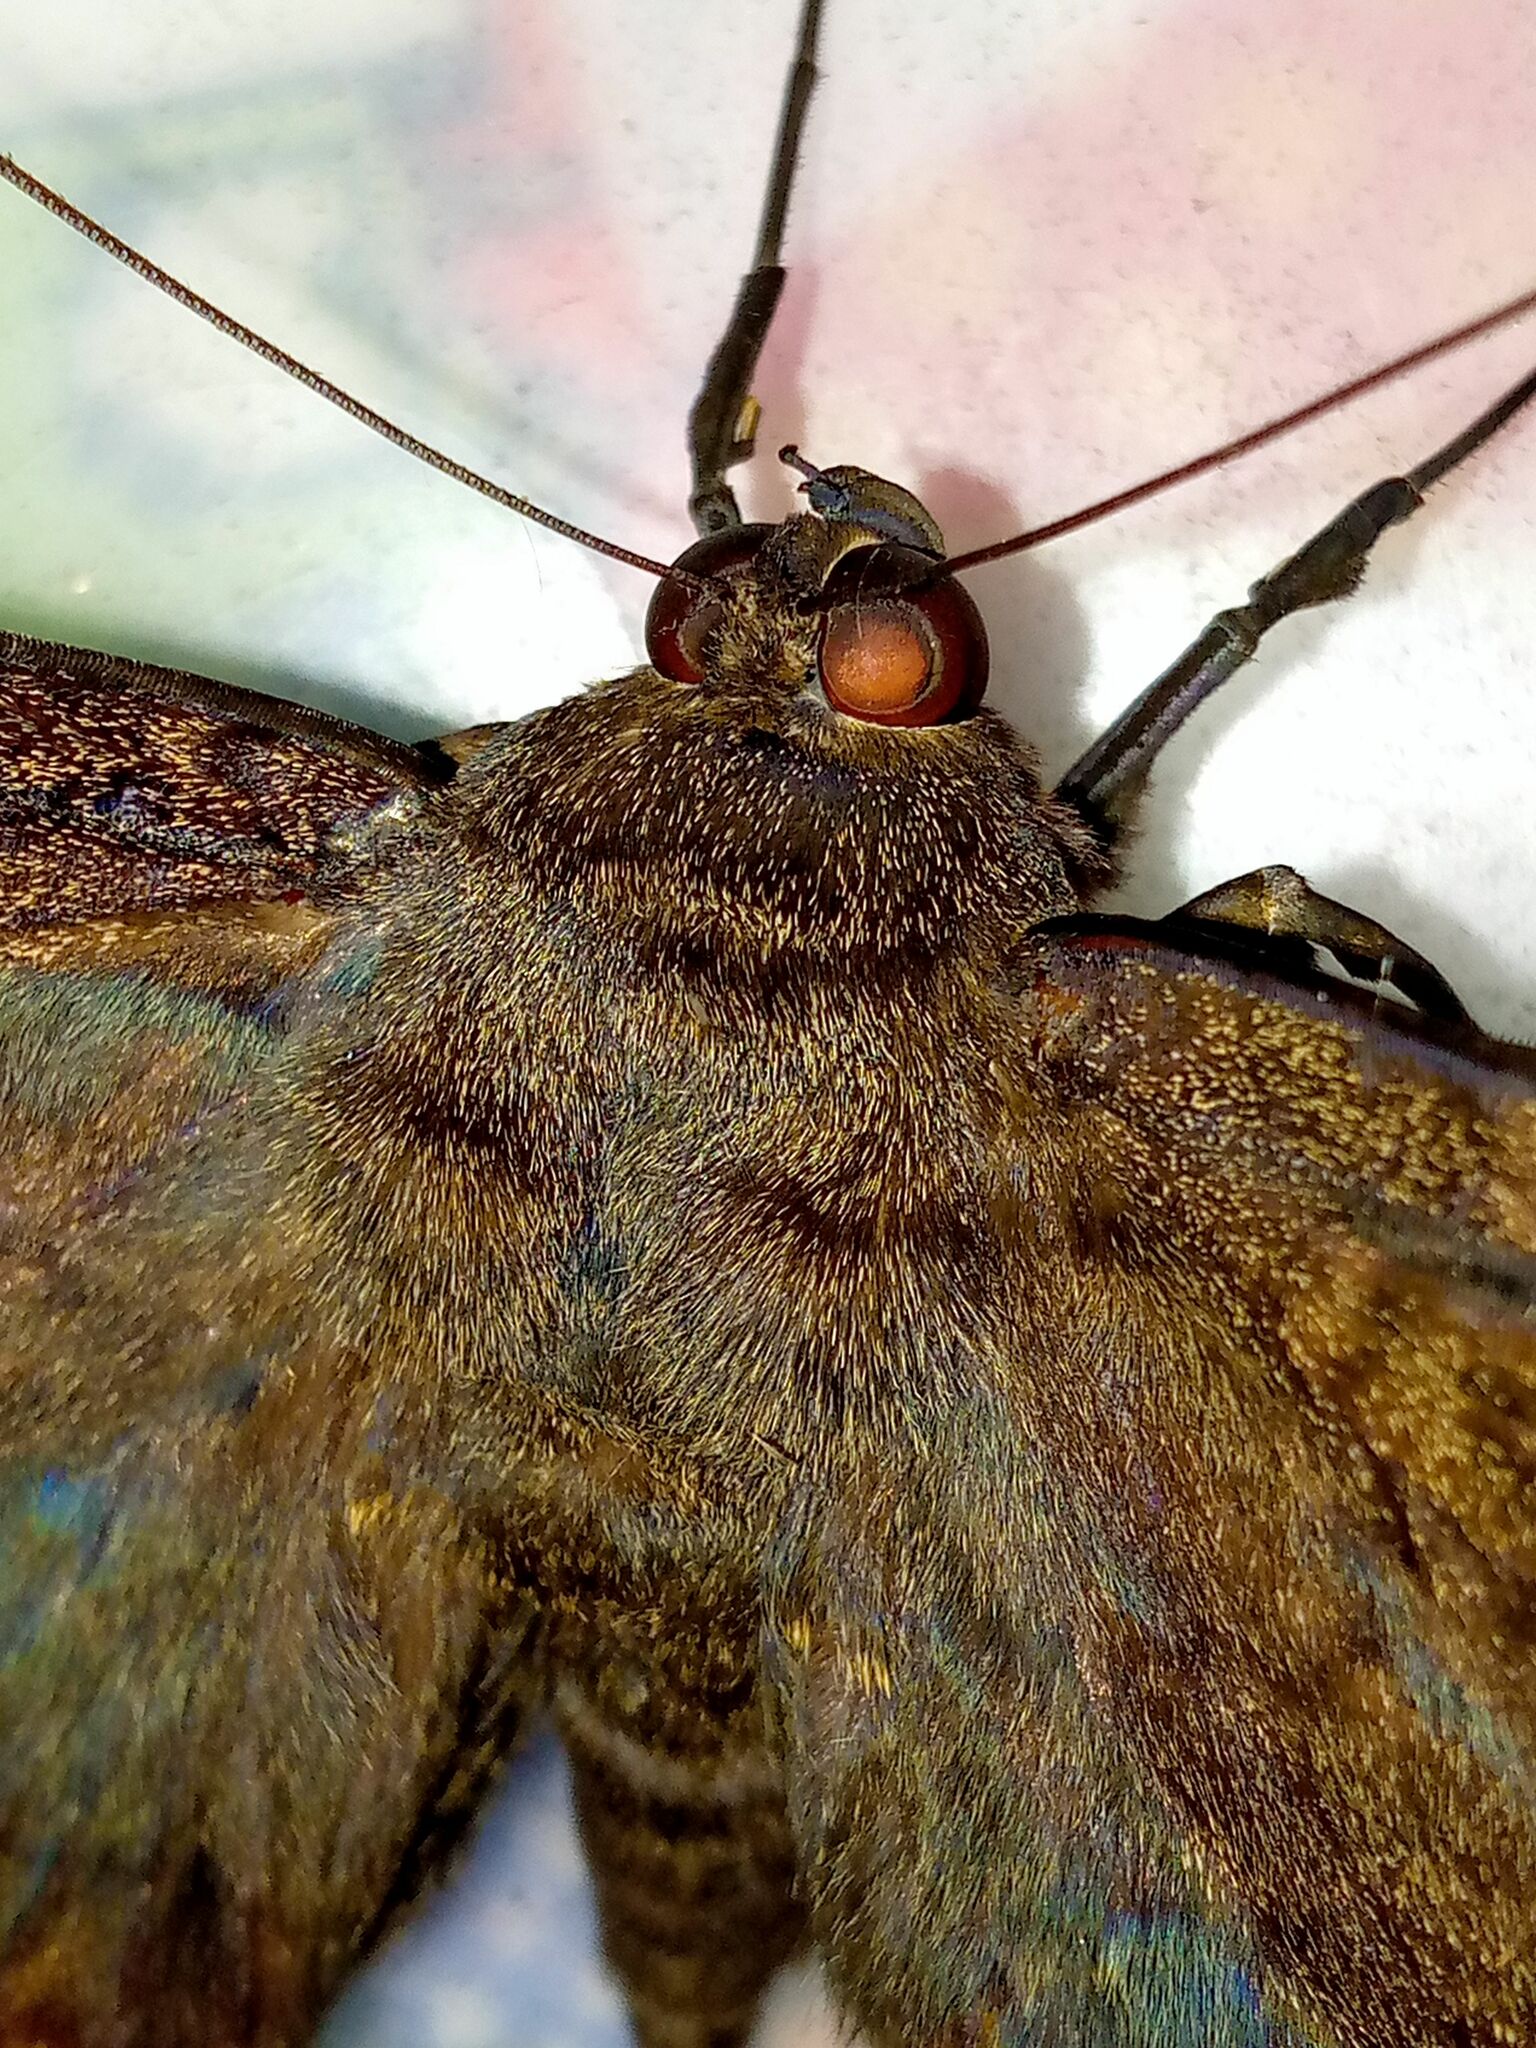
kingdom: Animalia
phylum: Arthropoda
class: Insecta
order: Lepidoptera
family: Erebidae
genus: Ascalapha
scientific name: Ascalapha odorata
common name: Black witch
